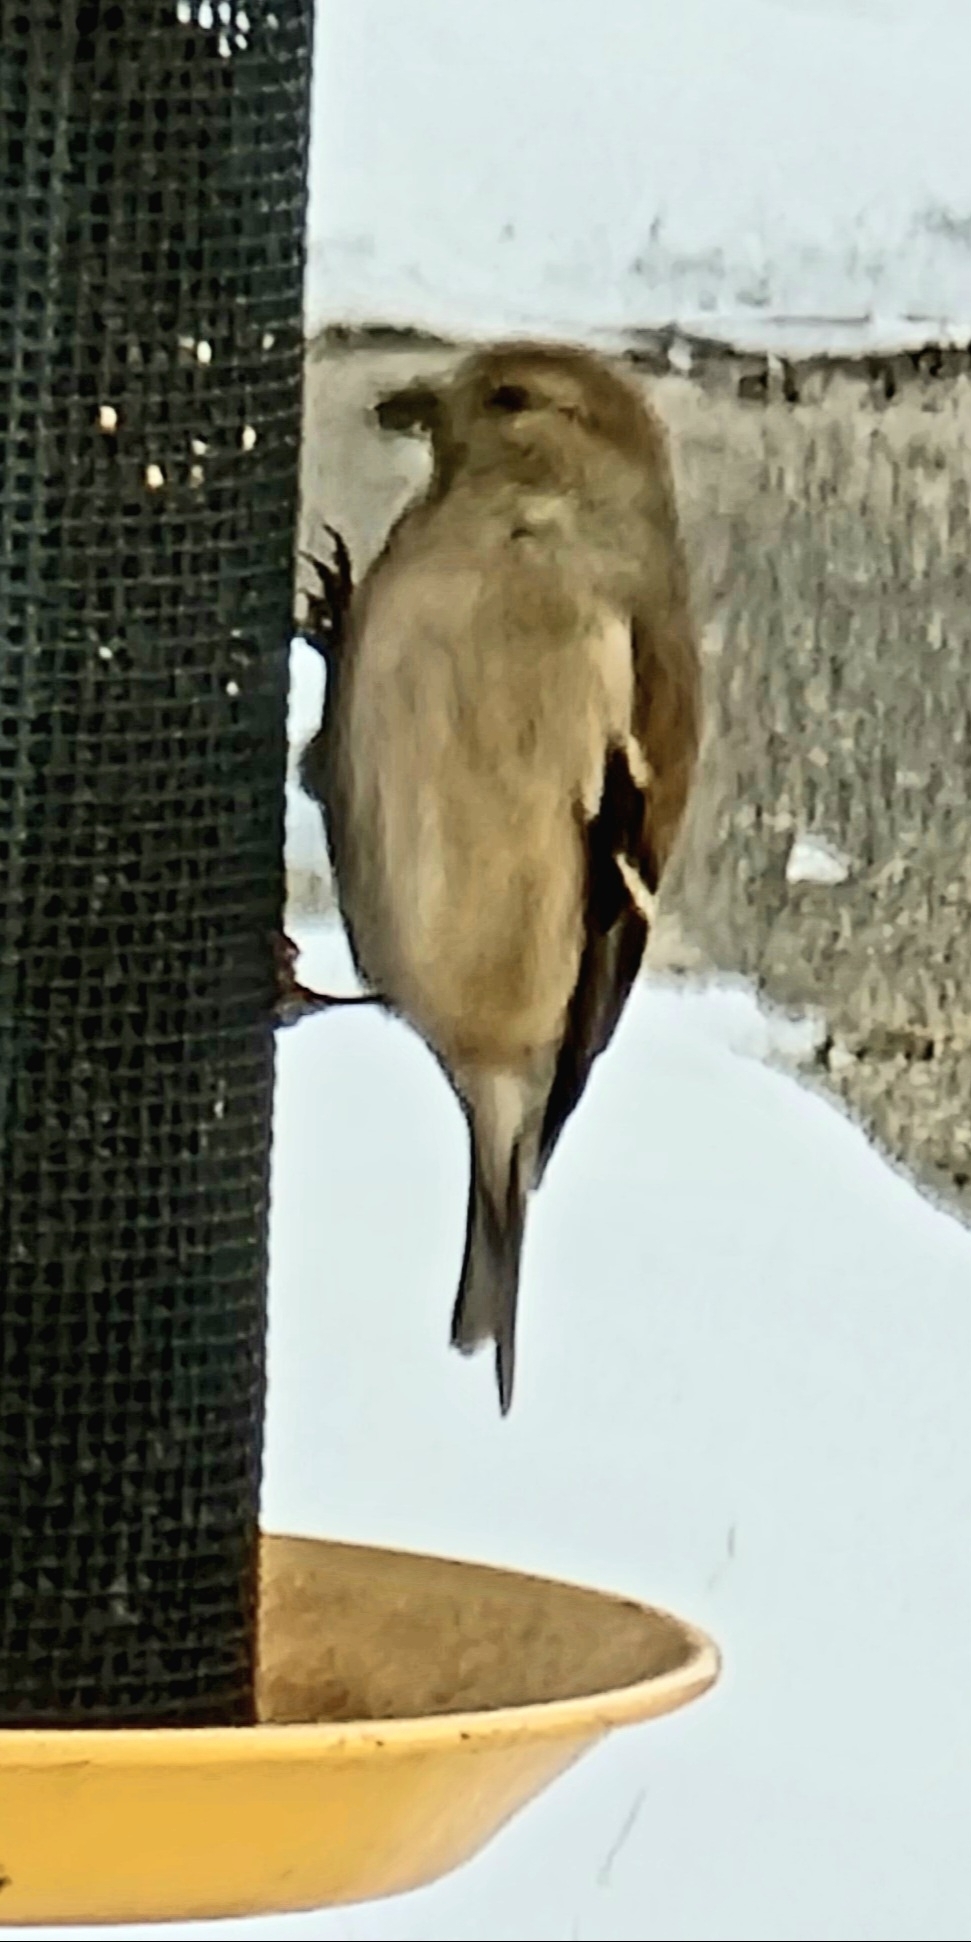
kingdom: Animalia
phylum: Chordata
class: Aves
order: Passeriformes
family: Fringillidae
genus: Spinus
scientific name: Spinus tristis
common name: American goldfinch
